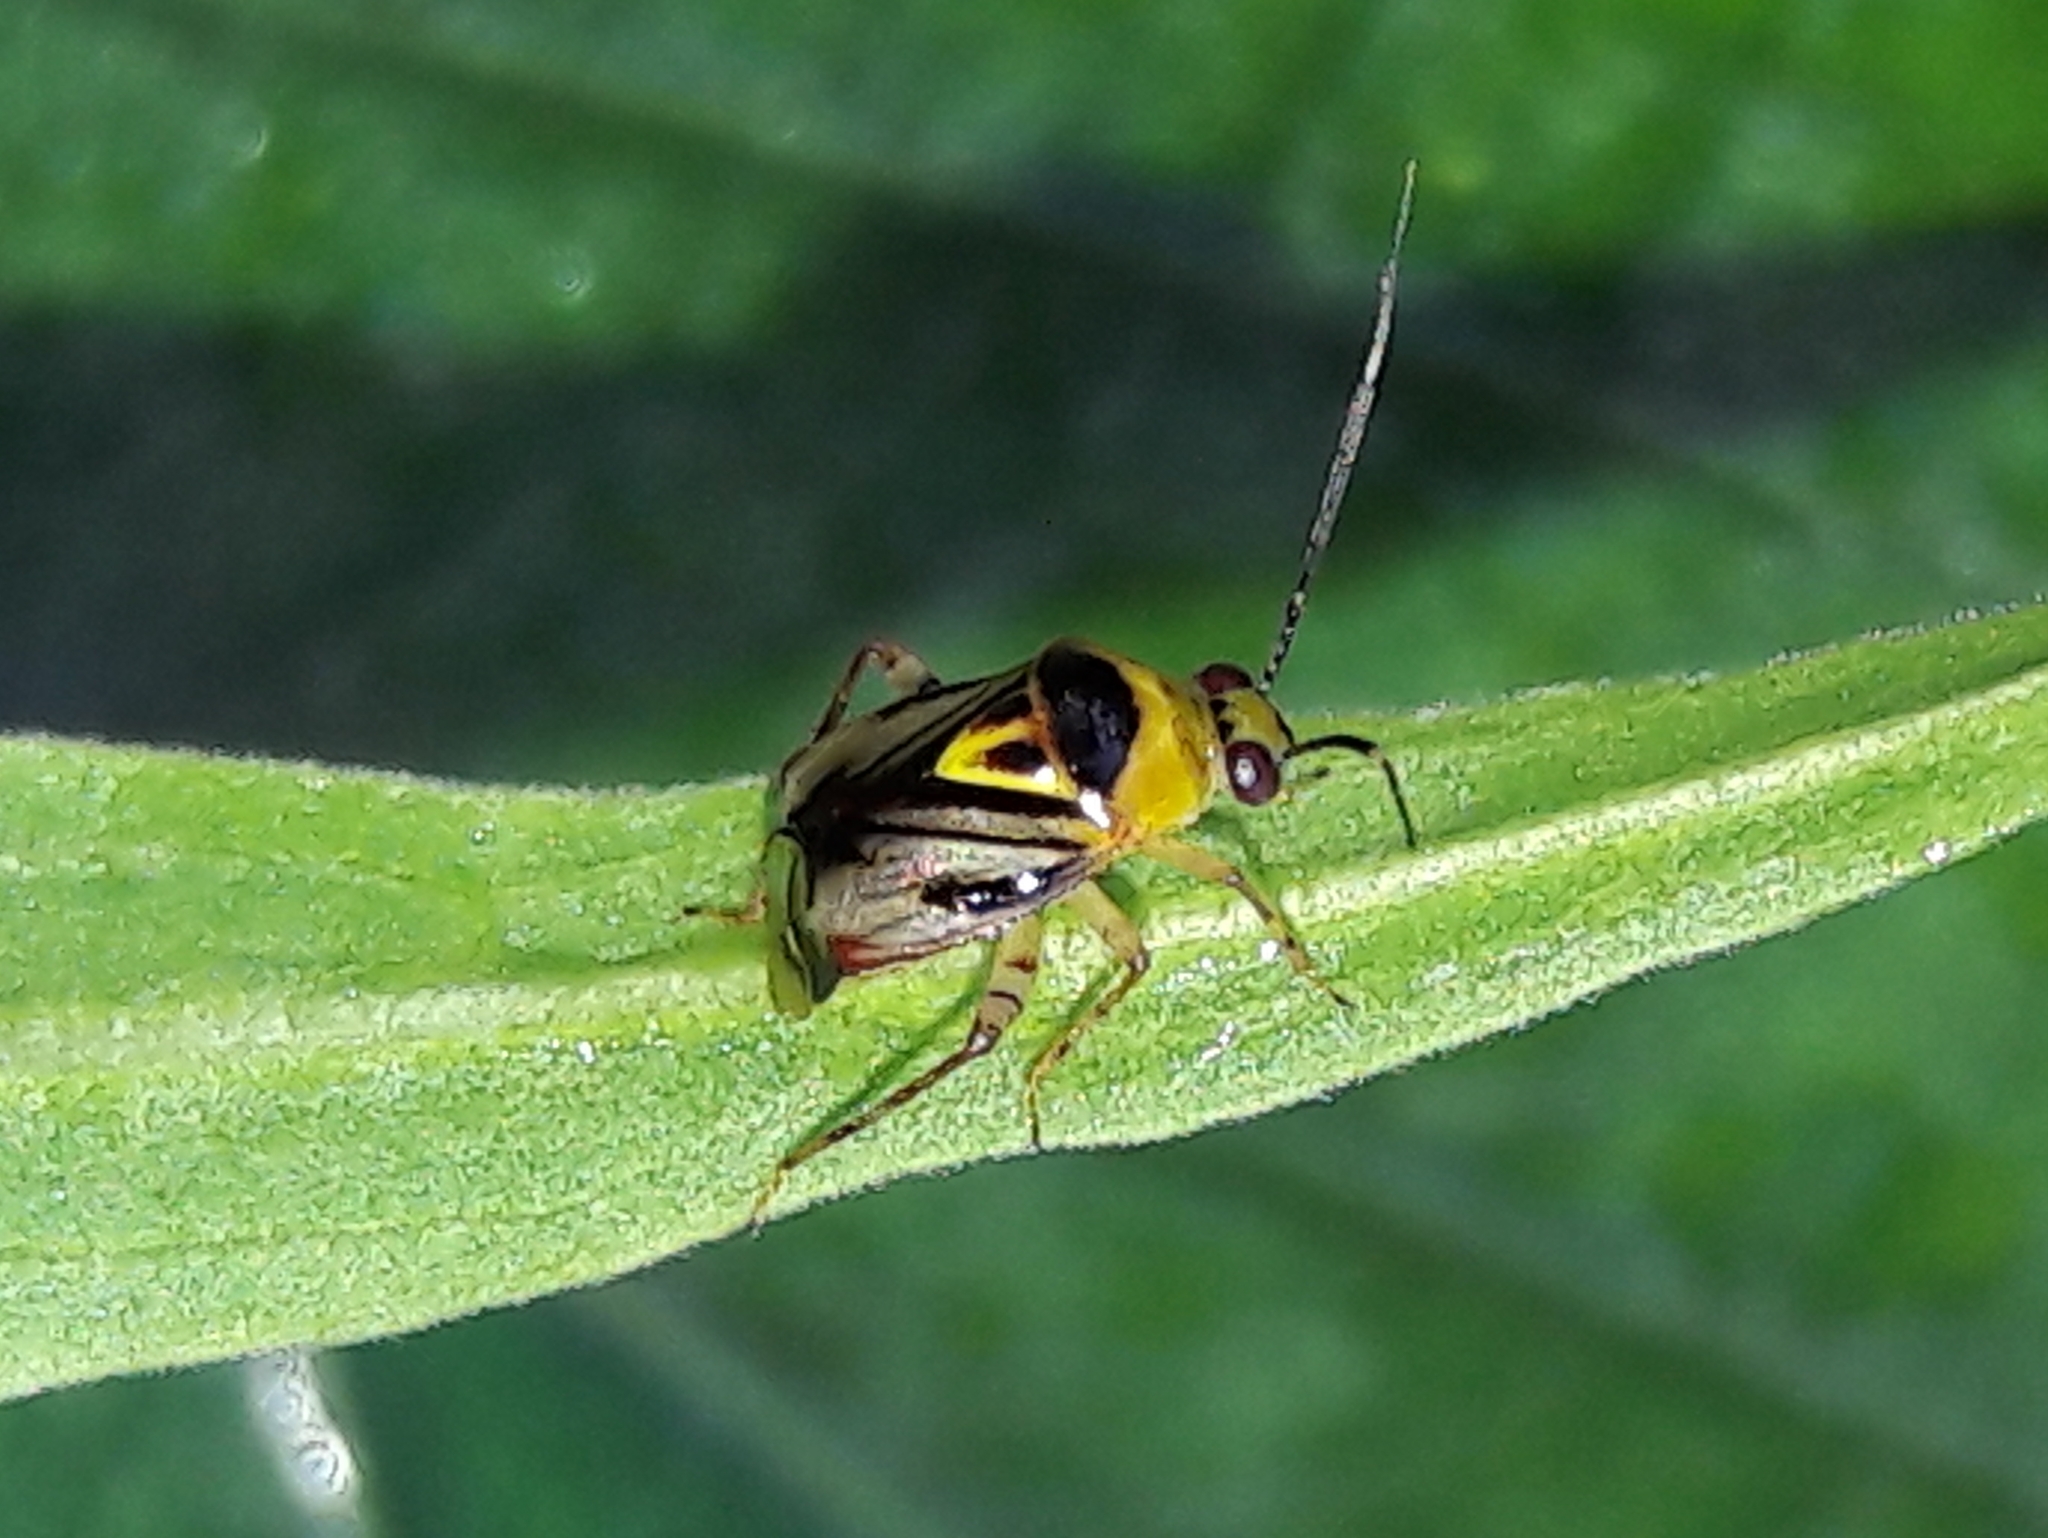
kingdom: Animalia
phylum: Arthropoda
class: Insecta
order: Hemiptera
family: Miridae
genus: Horciasoides
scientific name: Horciasoides notatus
